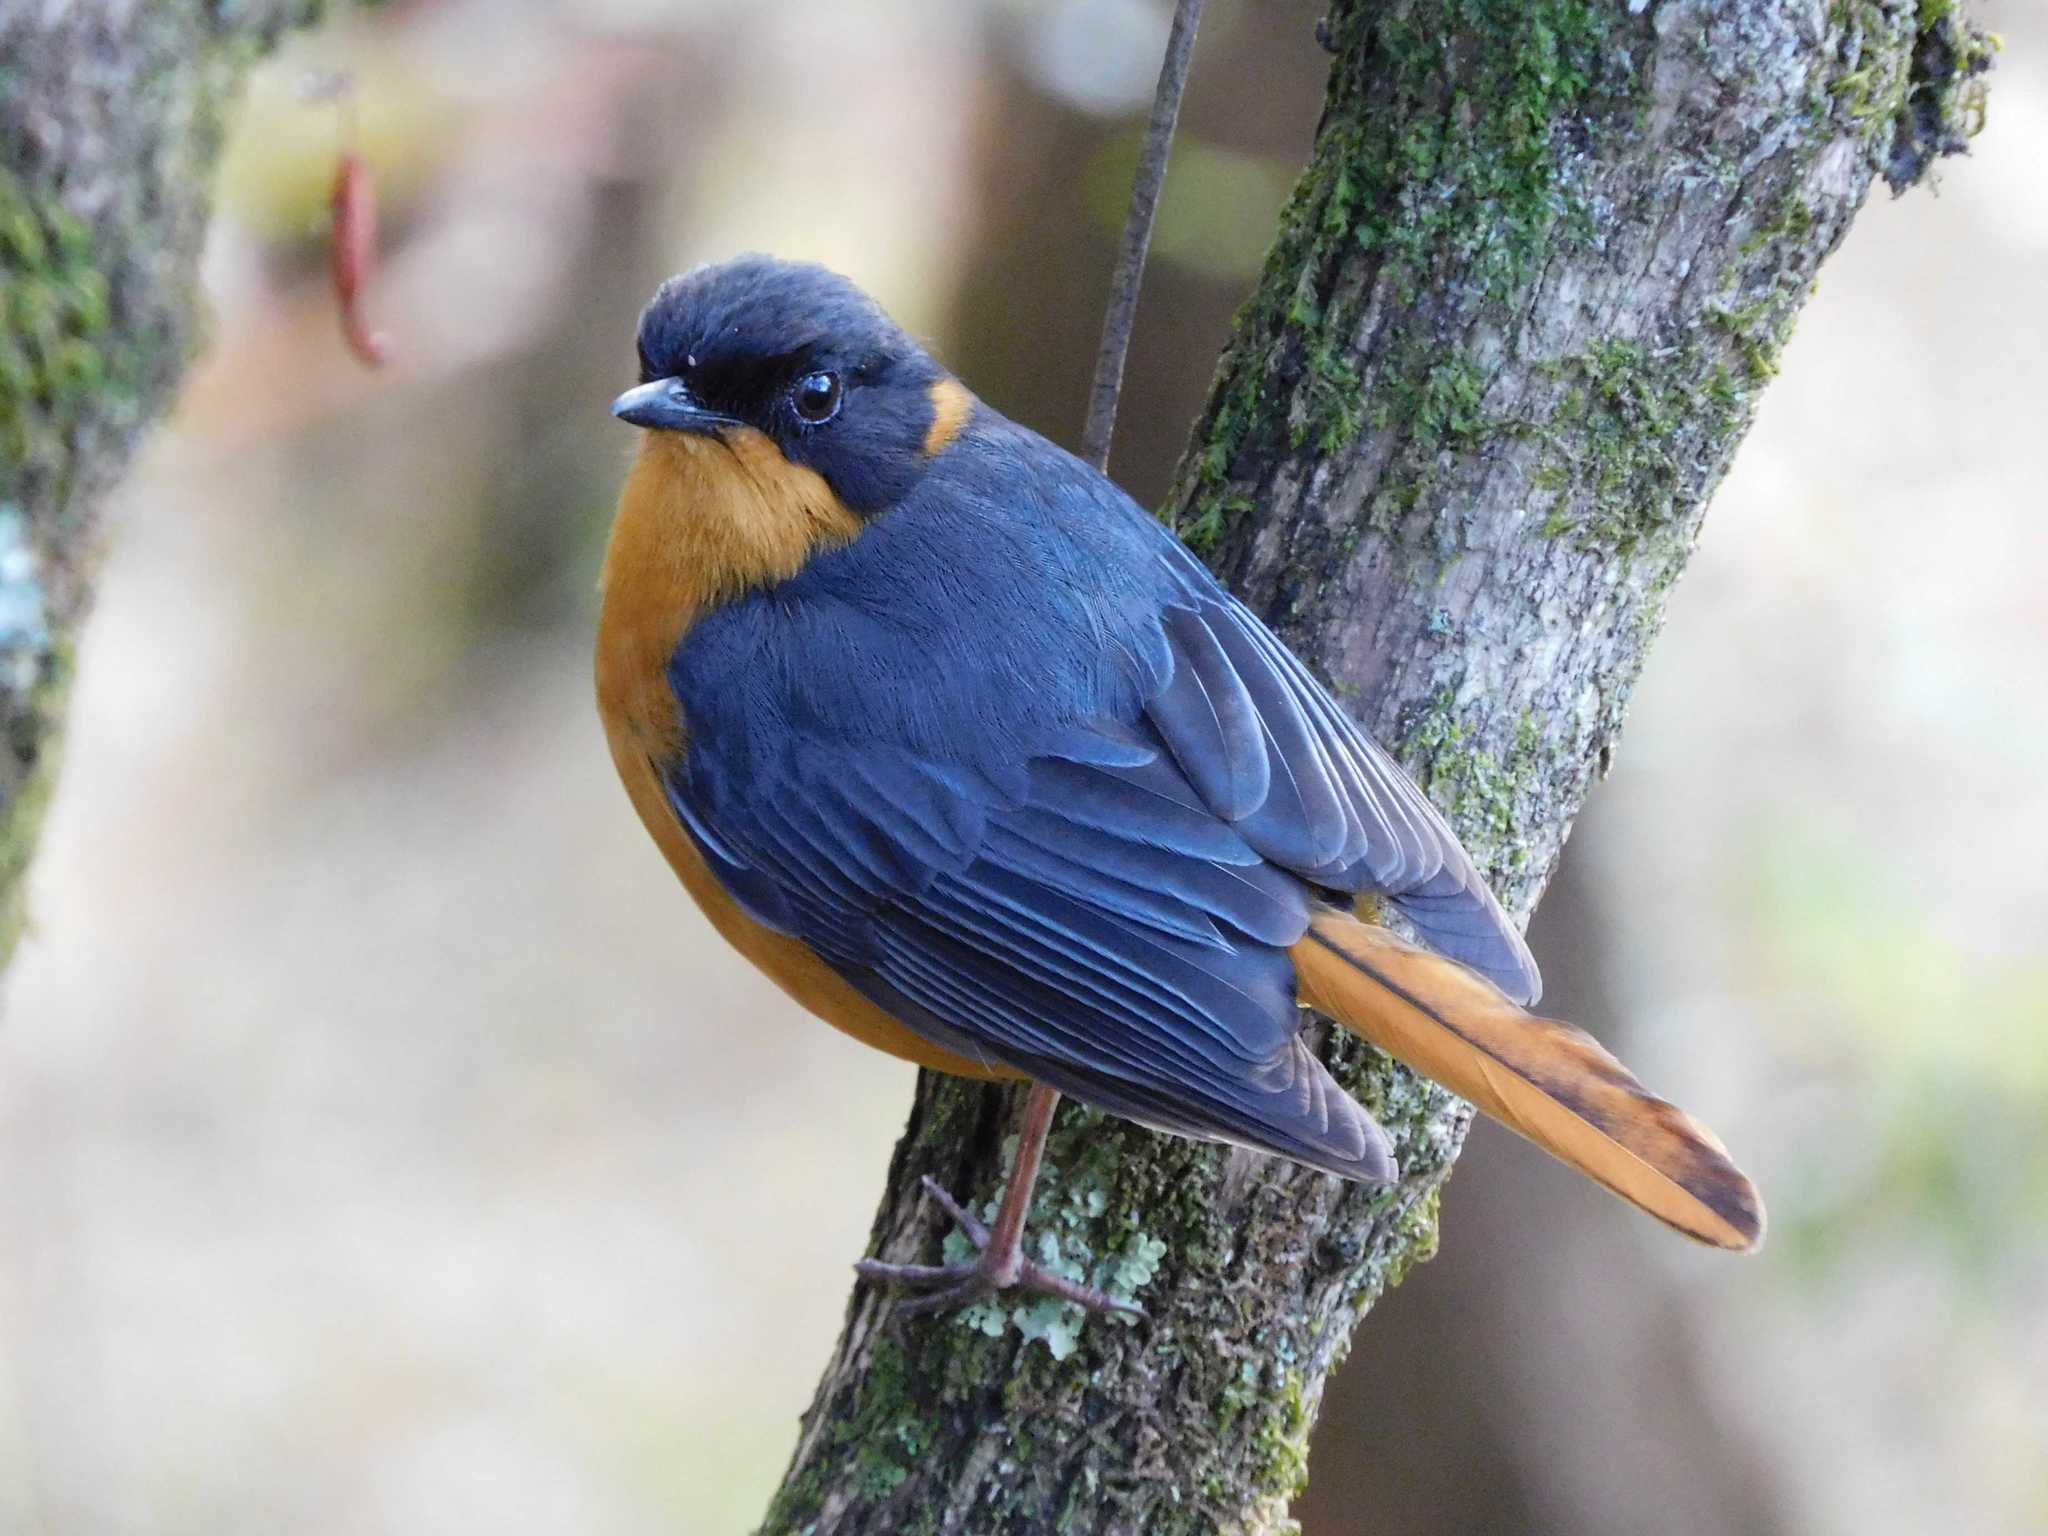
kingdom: Animalia
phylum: Chordata
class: Aves
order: Passeriformes
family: Muscicapidae
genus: Cossypha
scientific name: Cossypha dichroa
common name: Chorister robin-chat
